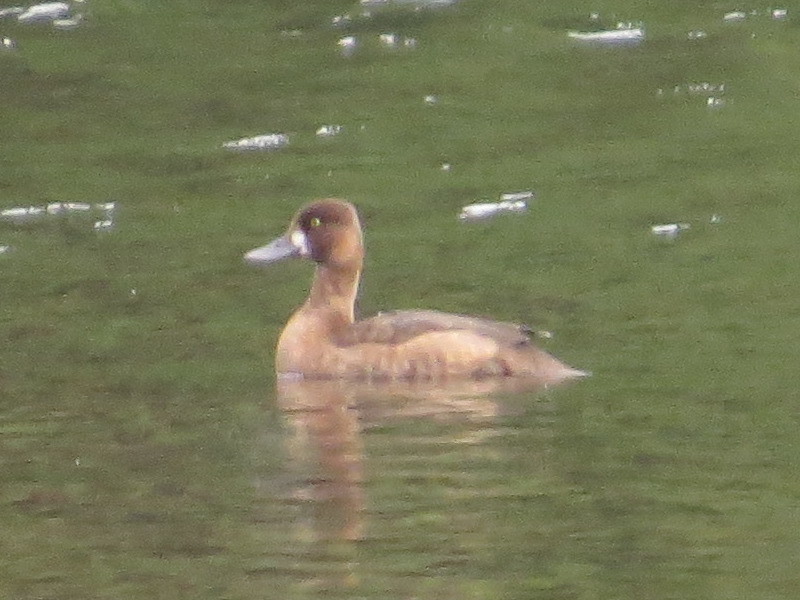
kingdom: Animalia
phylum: Chordata
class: Aves
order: Anseriformes
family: Anatidae
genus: Aythya
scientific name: Aythya affinis
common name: Lesser scaup
